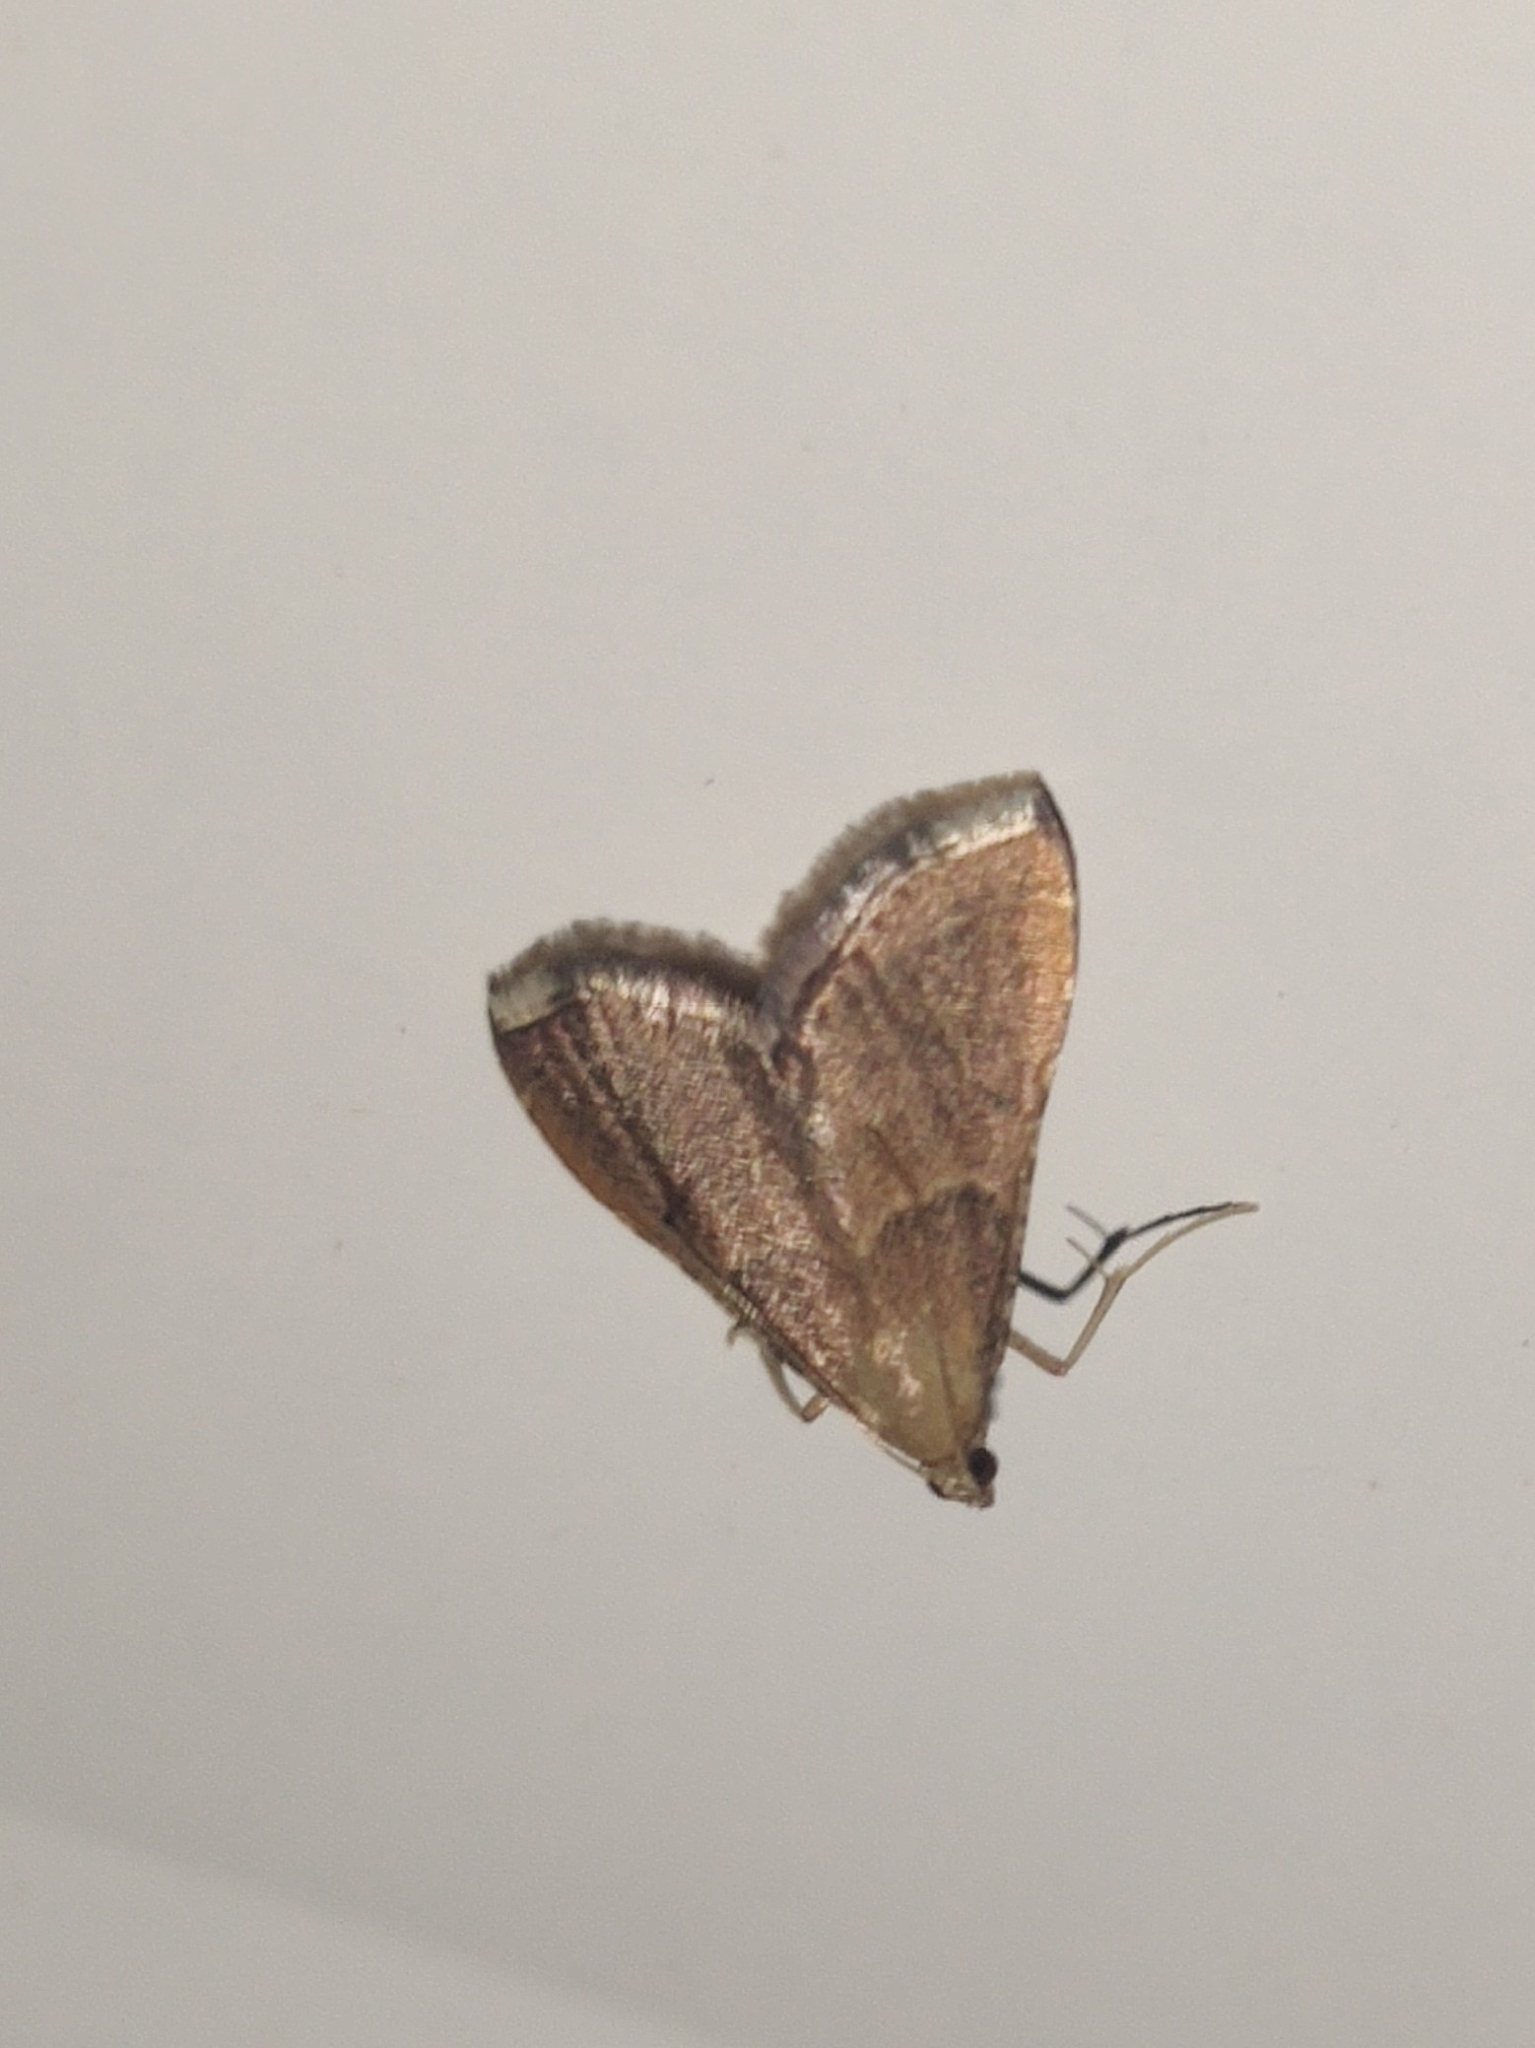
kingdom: Animalia
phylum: Arthropoda
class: Insecta
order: Lepidoptera
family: Pyralidae
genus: Endotricha
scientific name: Endotricha flammealis
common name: Rosy tabby
